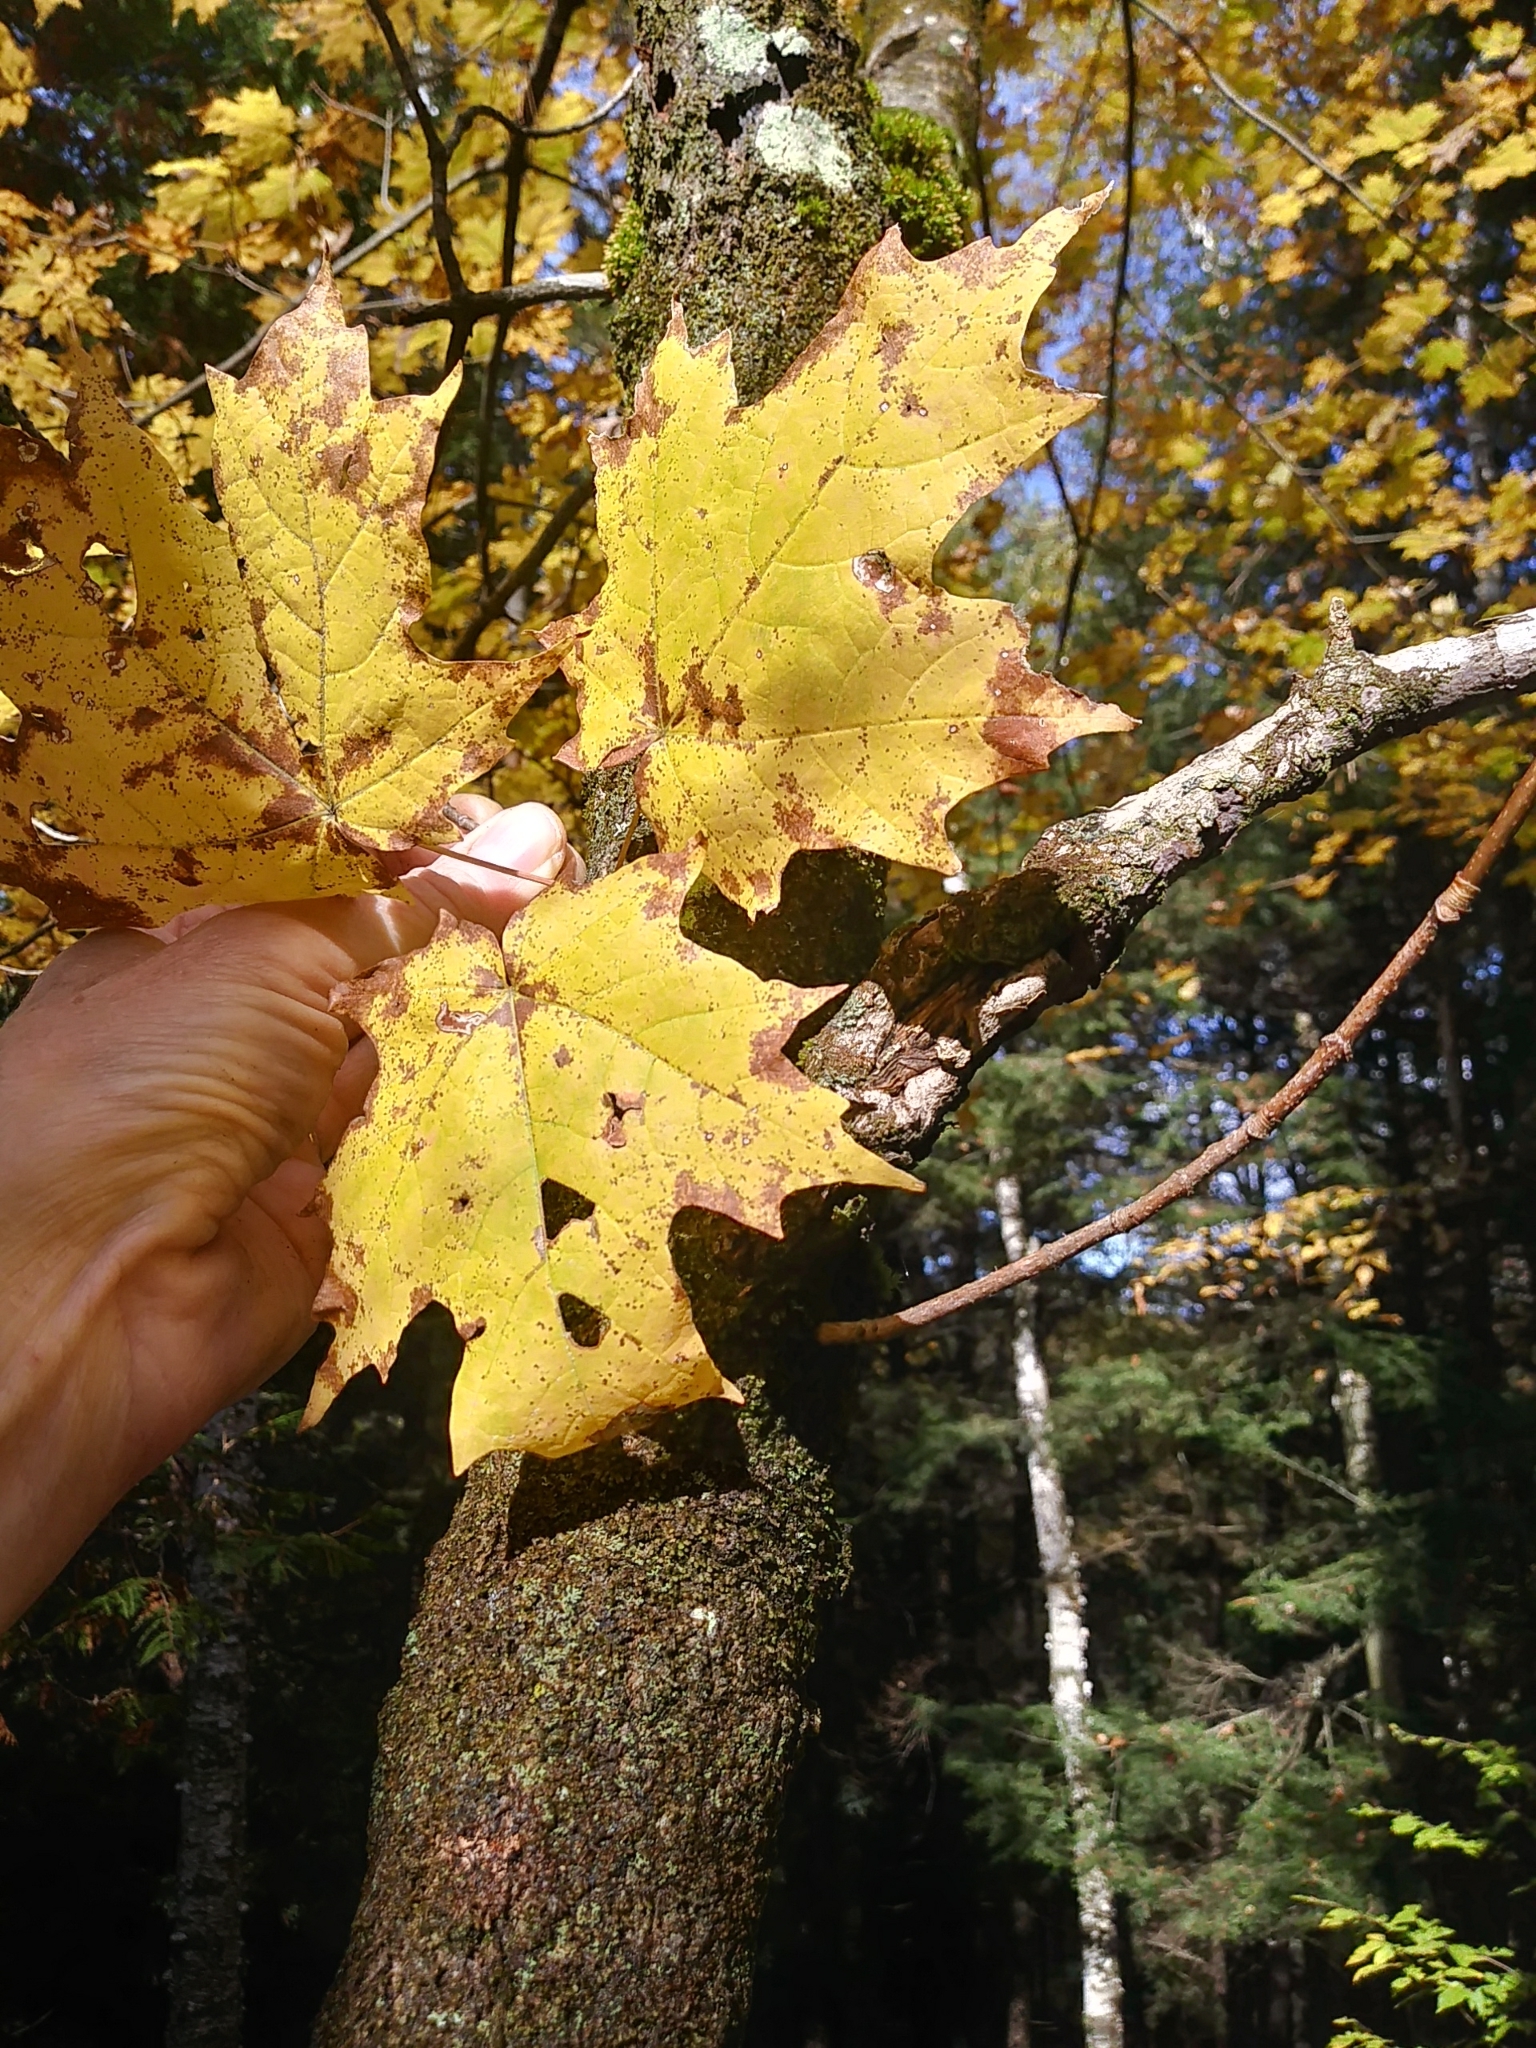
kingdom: Plantae
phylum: Tracheophyta
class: Magnoliopsida
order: Sapindales
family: Sapindaceae
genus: Acer
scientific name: Acer saccharum
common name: Sugar maple
